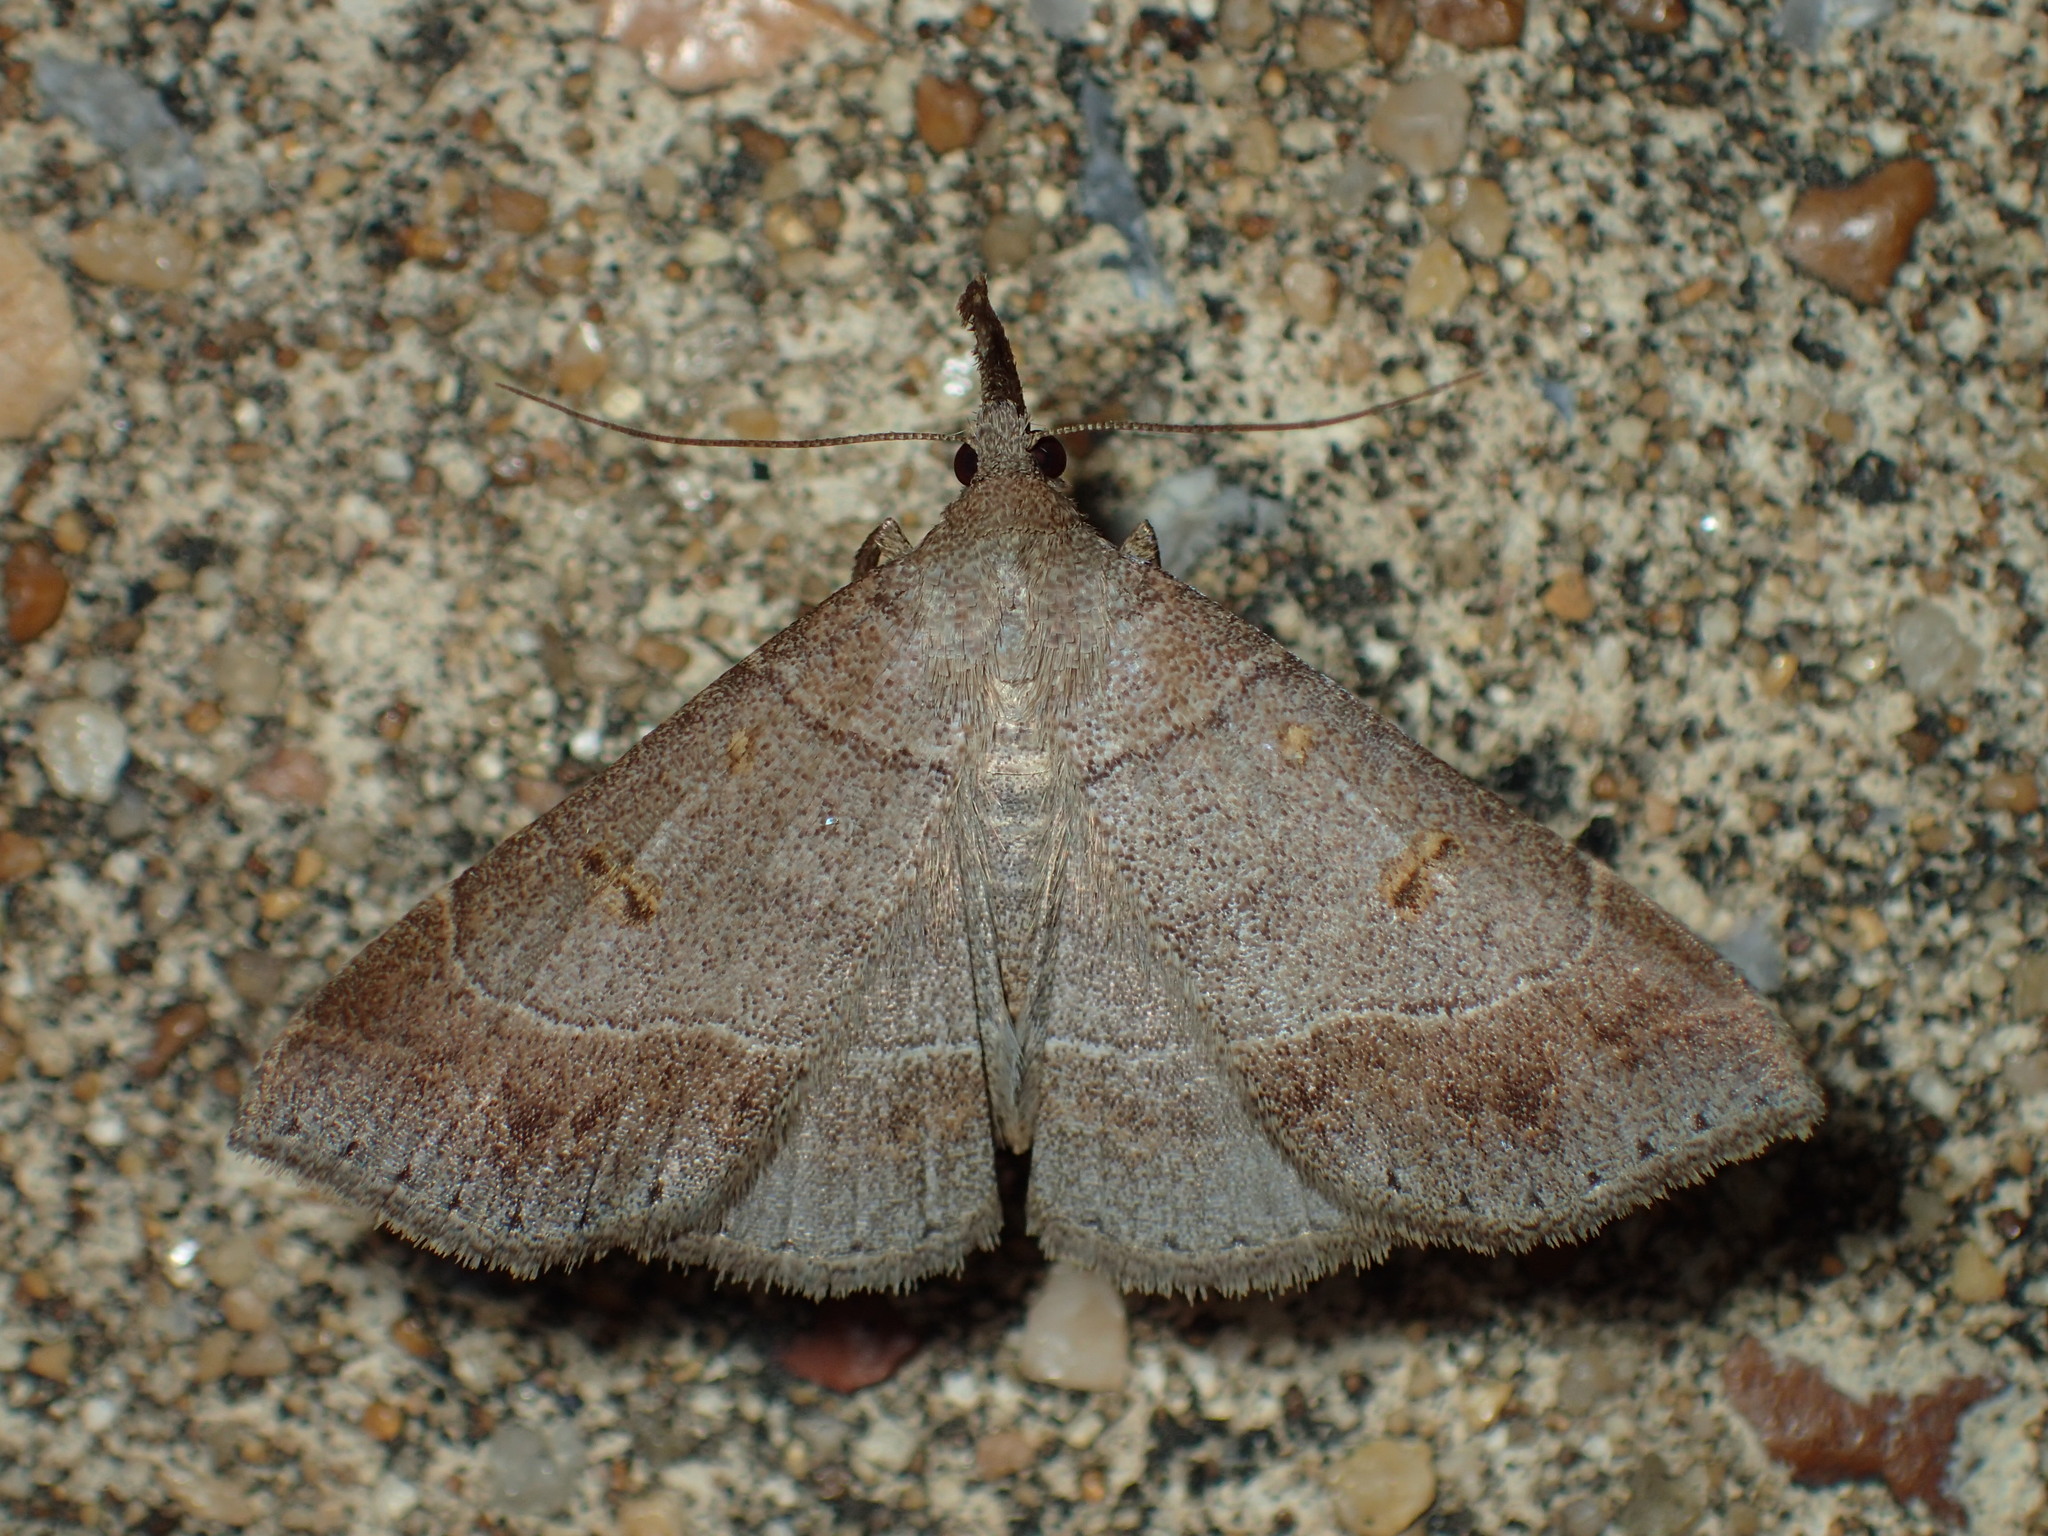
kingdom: Animalia
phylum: Arthropoda
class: Insecta
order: Lepidoptera
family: Erebidae
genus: Renia
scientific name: Renia flavipunctalis
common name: Yellow-spotted renia moth
